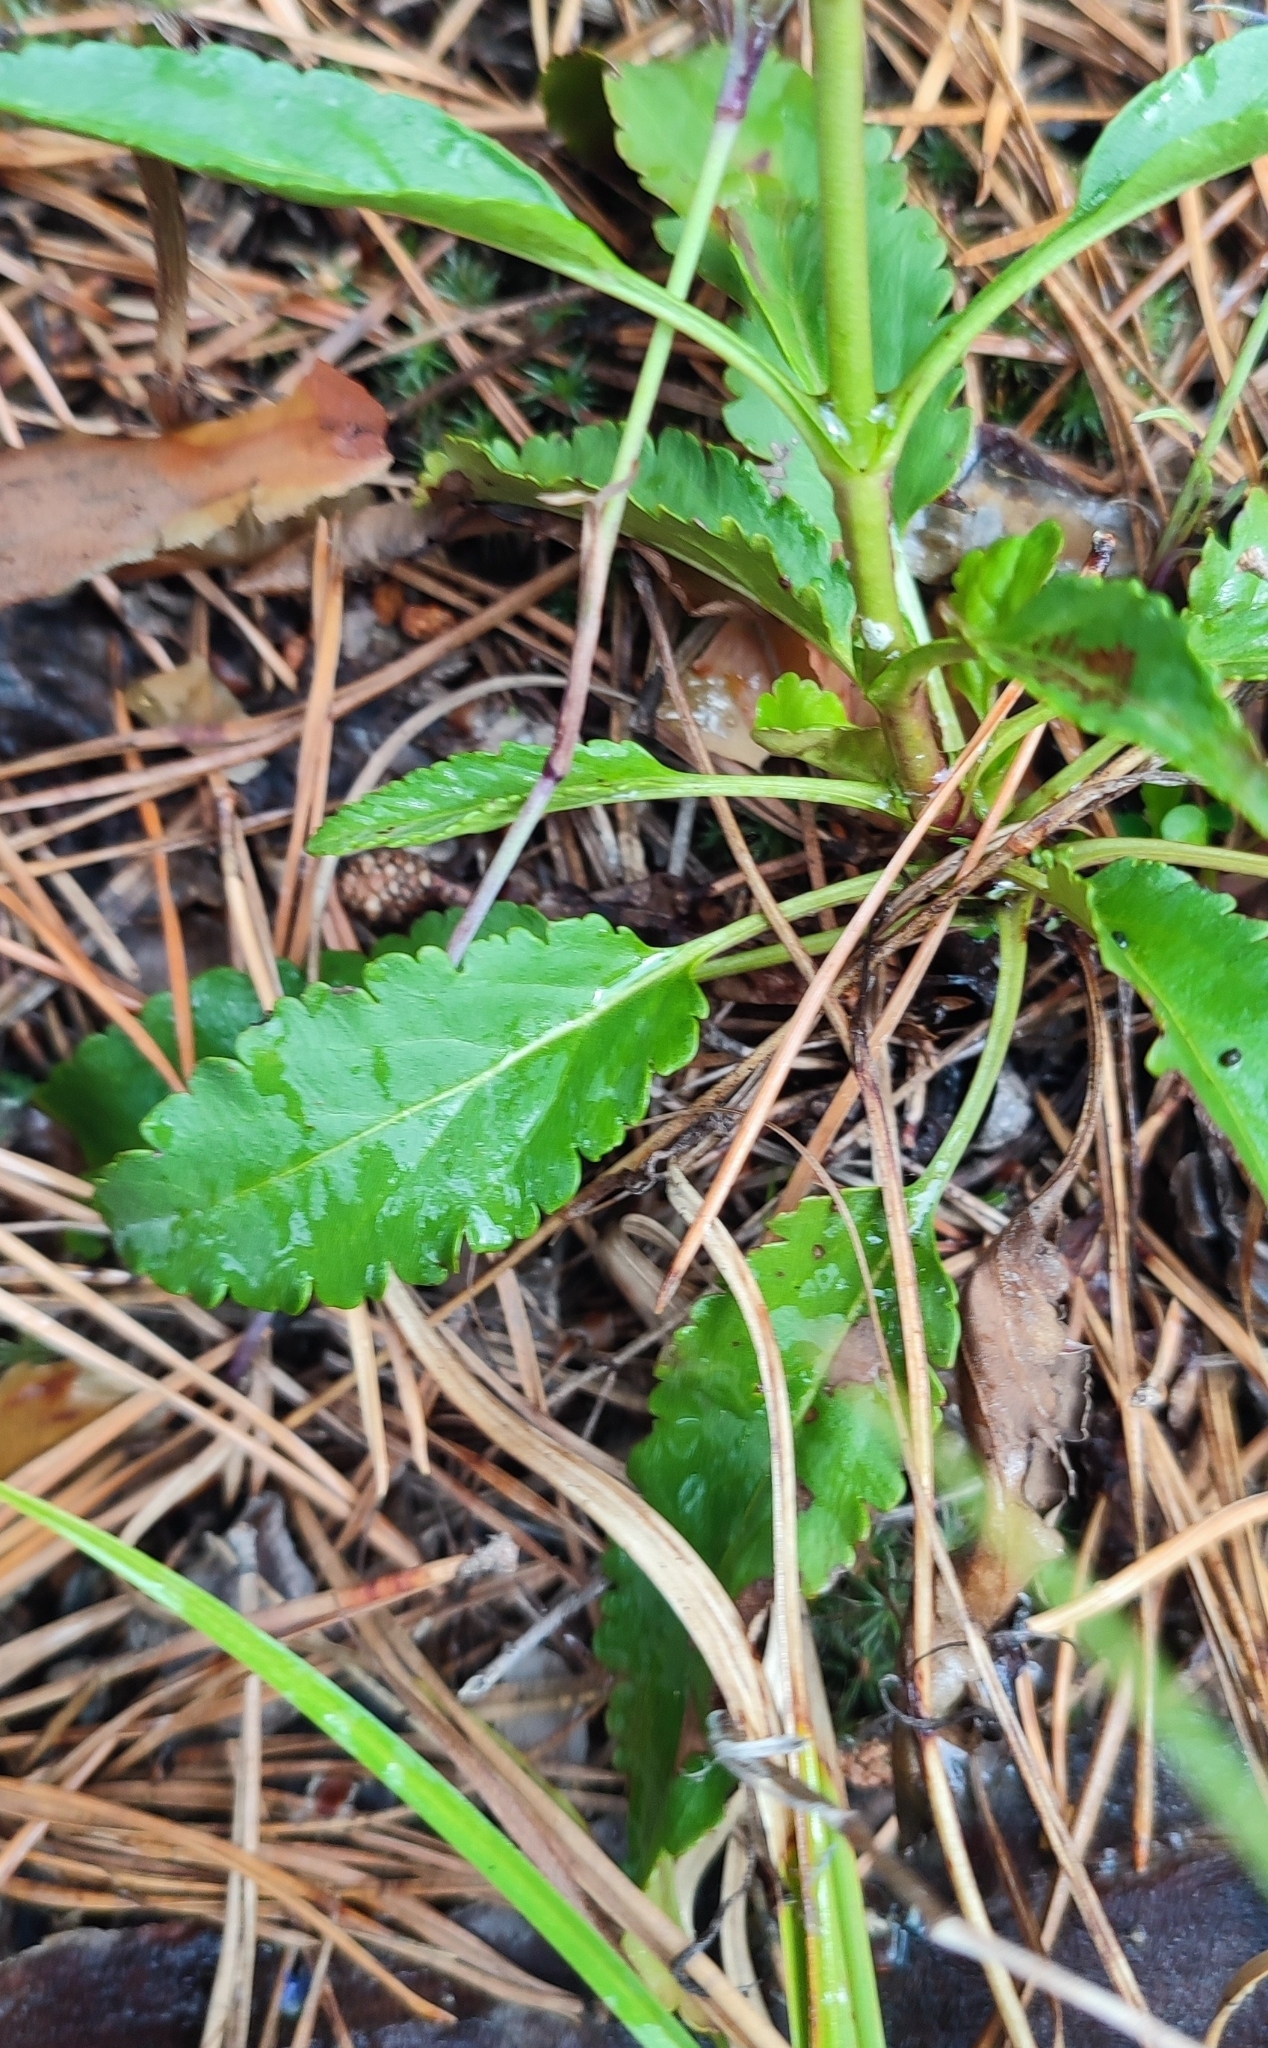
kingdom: Plantae
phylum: Tracheophyta
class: Magnoliopsida
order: Lamiales
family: Plantaginaceae
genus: Veronica
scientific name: Veronica spicata
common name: Spiked speedwell
